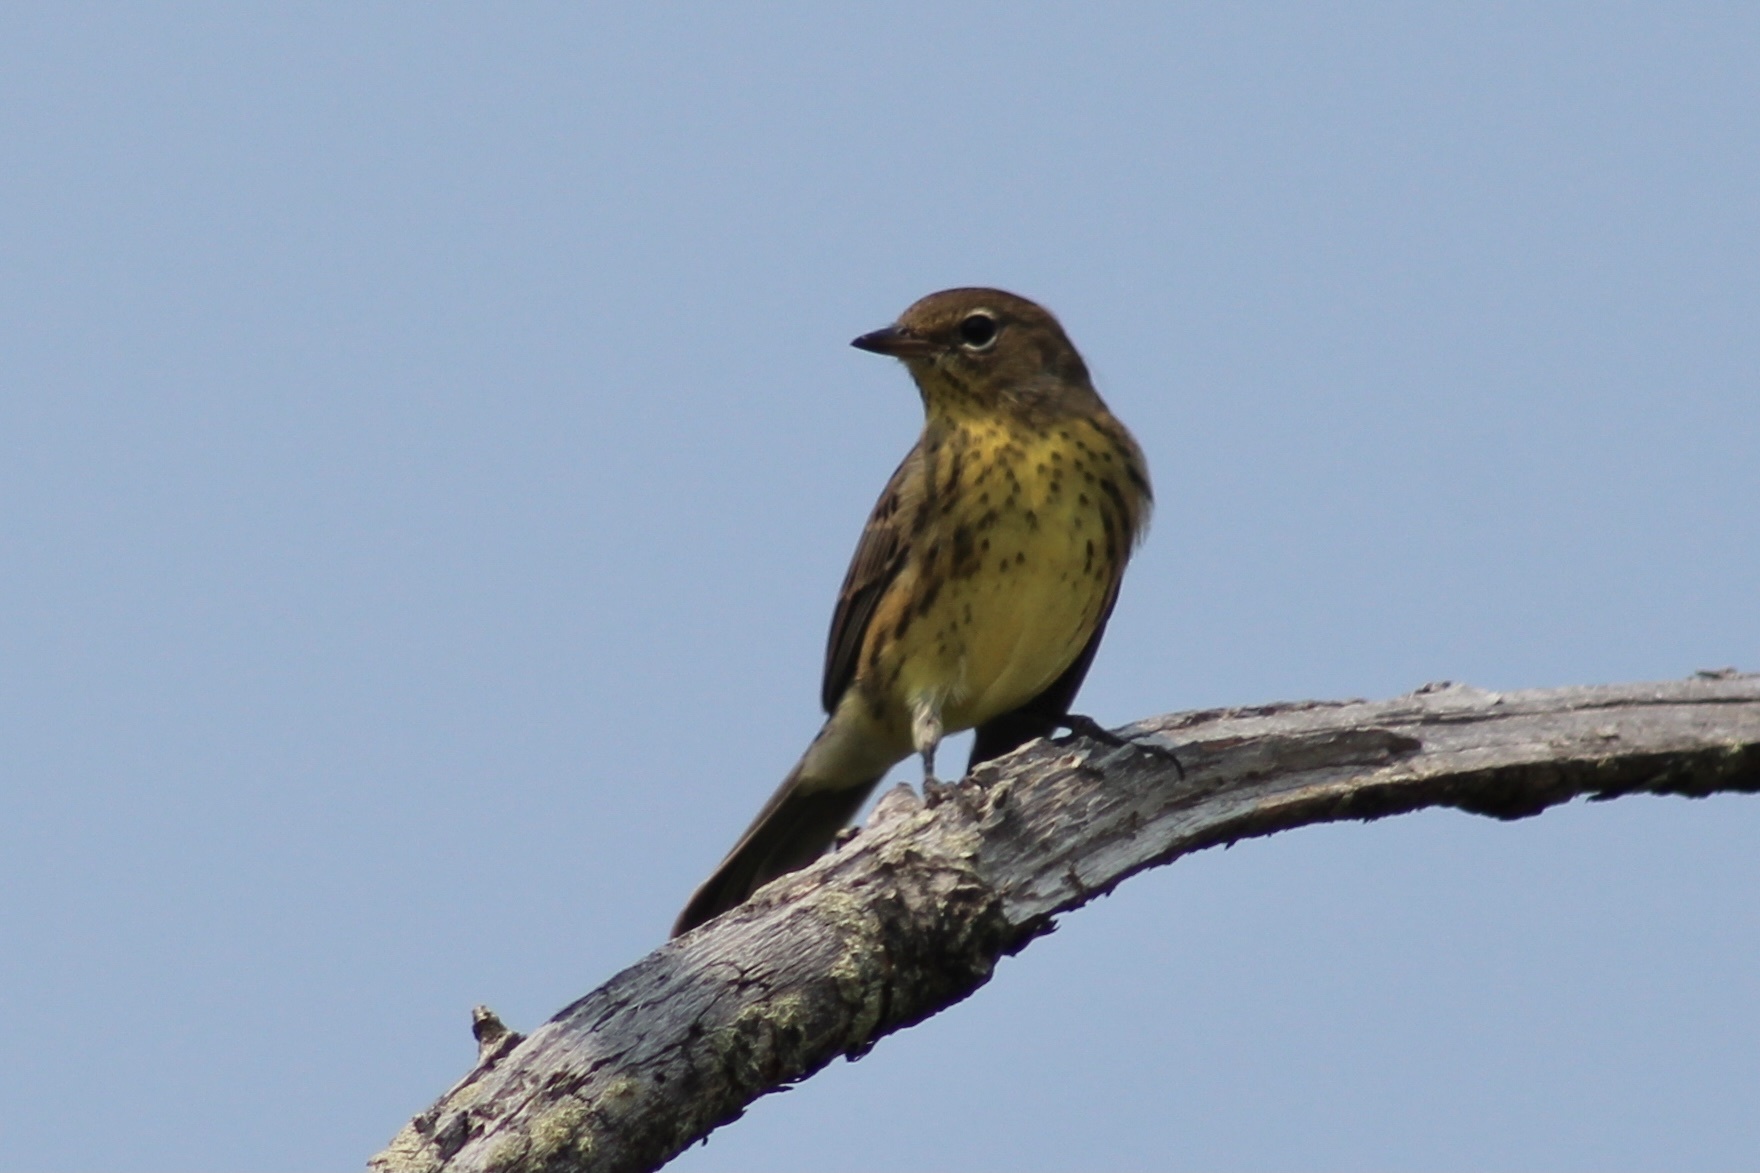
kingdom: Animalia
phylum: Chordata
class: Aves
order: Passeriformes
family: Parulidae
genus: Setophaga
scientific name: Setophaga kirtlandii
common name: Kirtland's warbler
